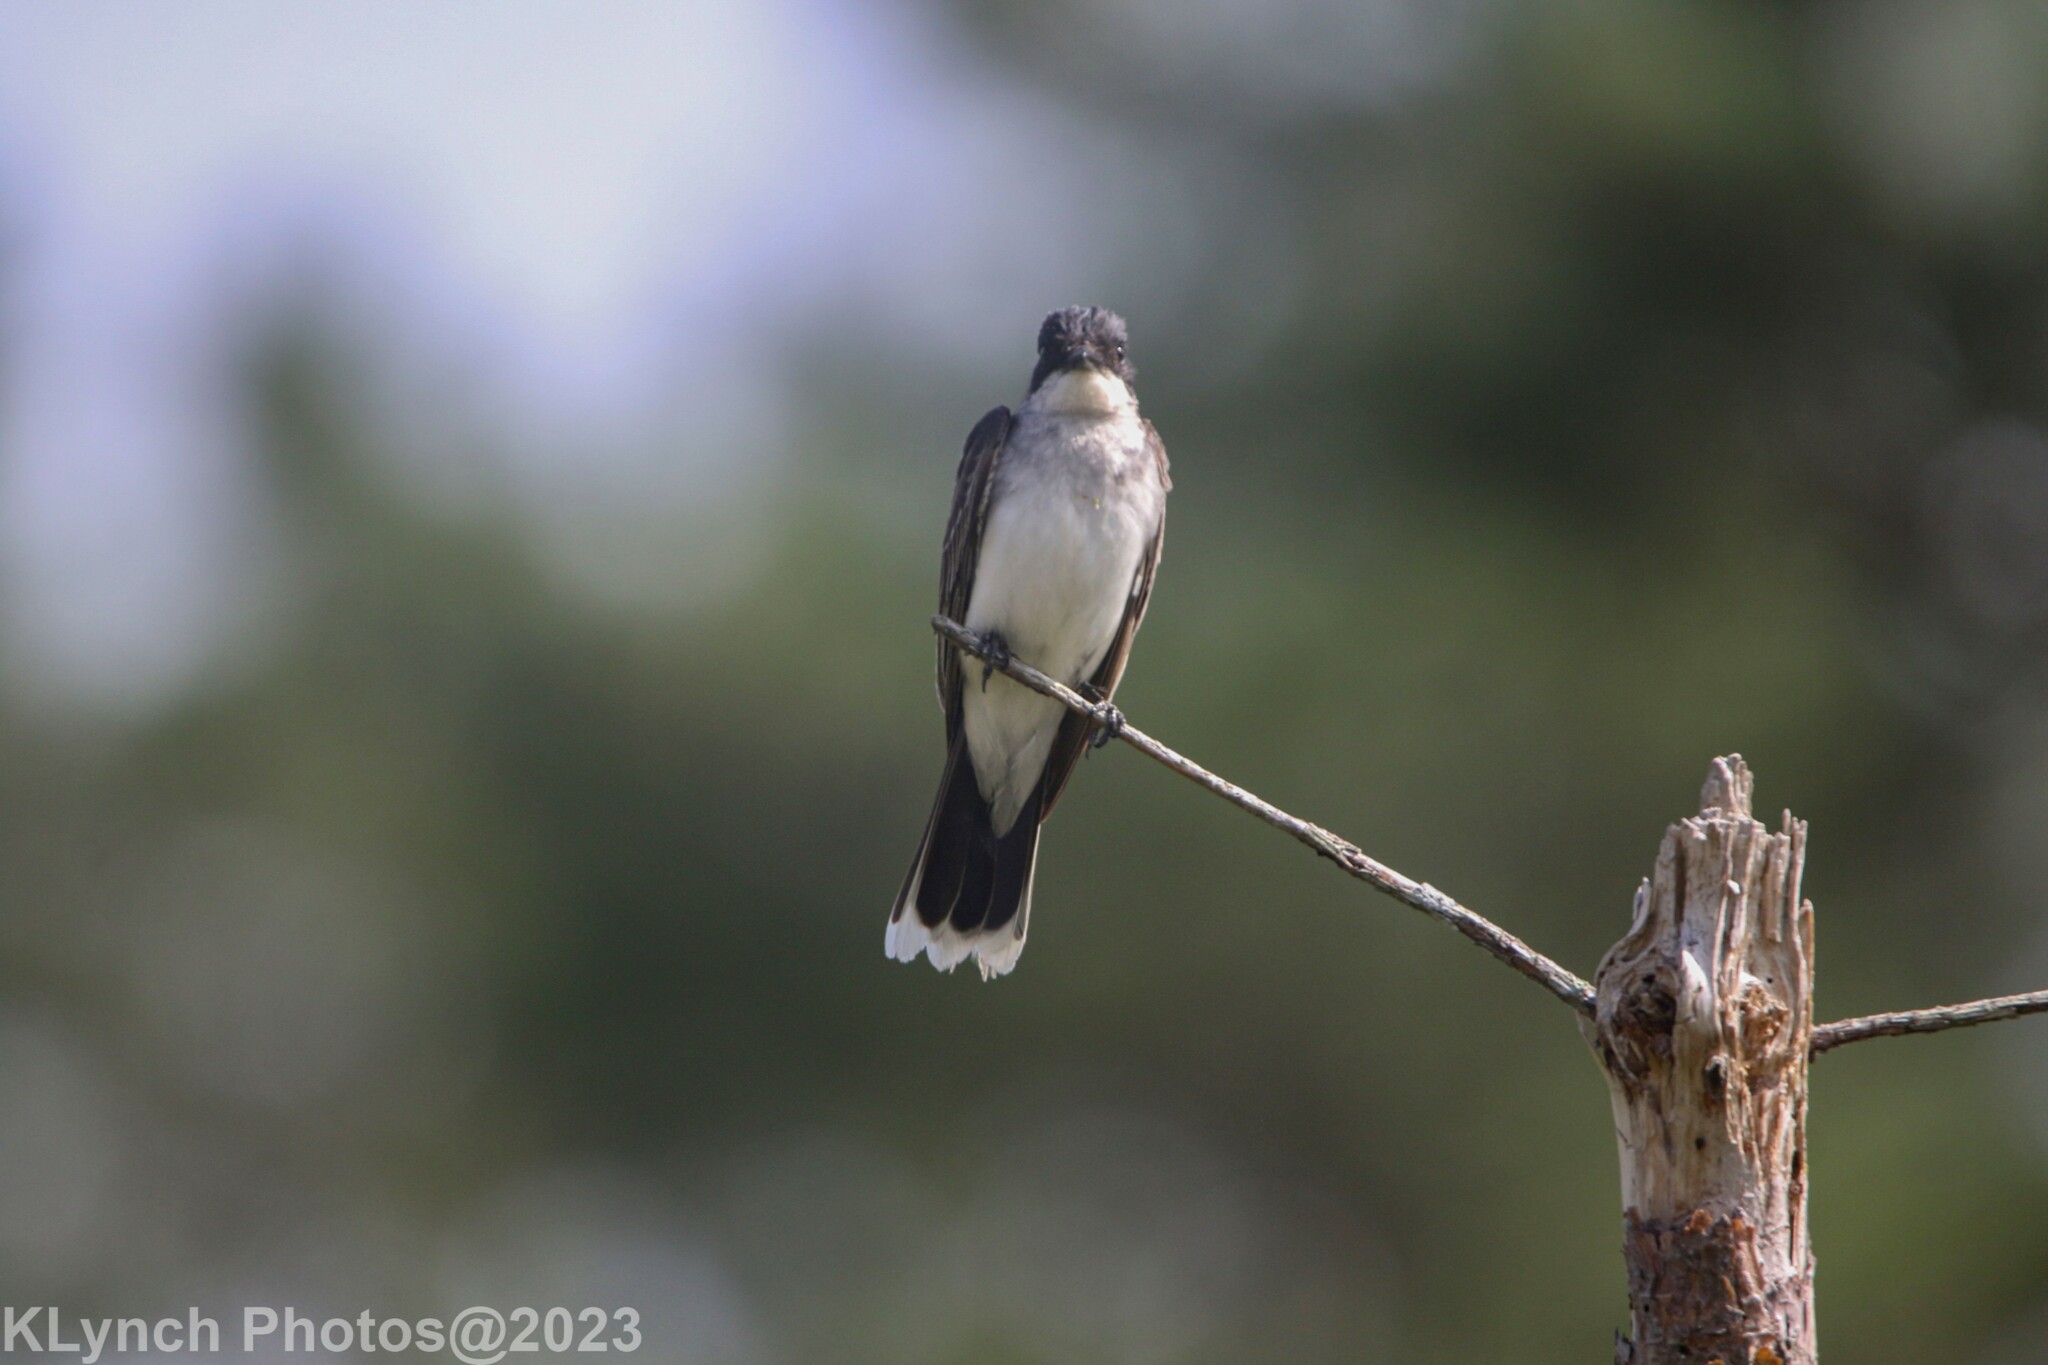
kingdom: Animalia
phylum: Chordata
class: Aves
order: Passeriformes
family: Tyrannidae
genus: Tyrannus
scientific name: Tyrannus tyrannus
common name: Eastern kingbird
